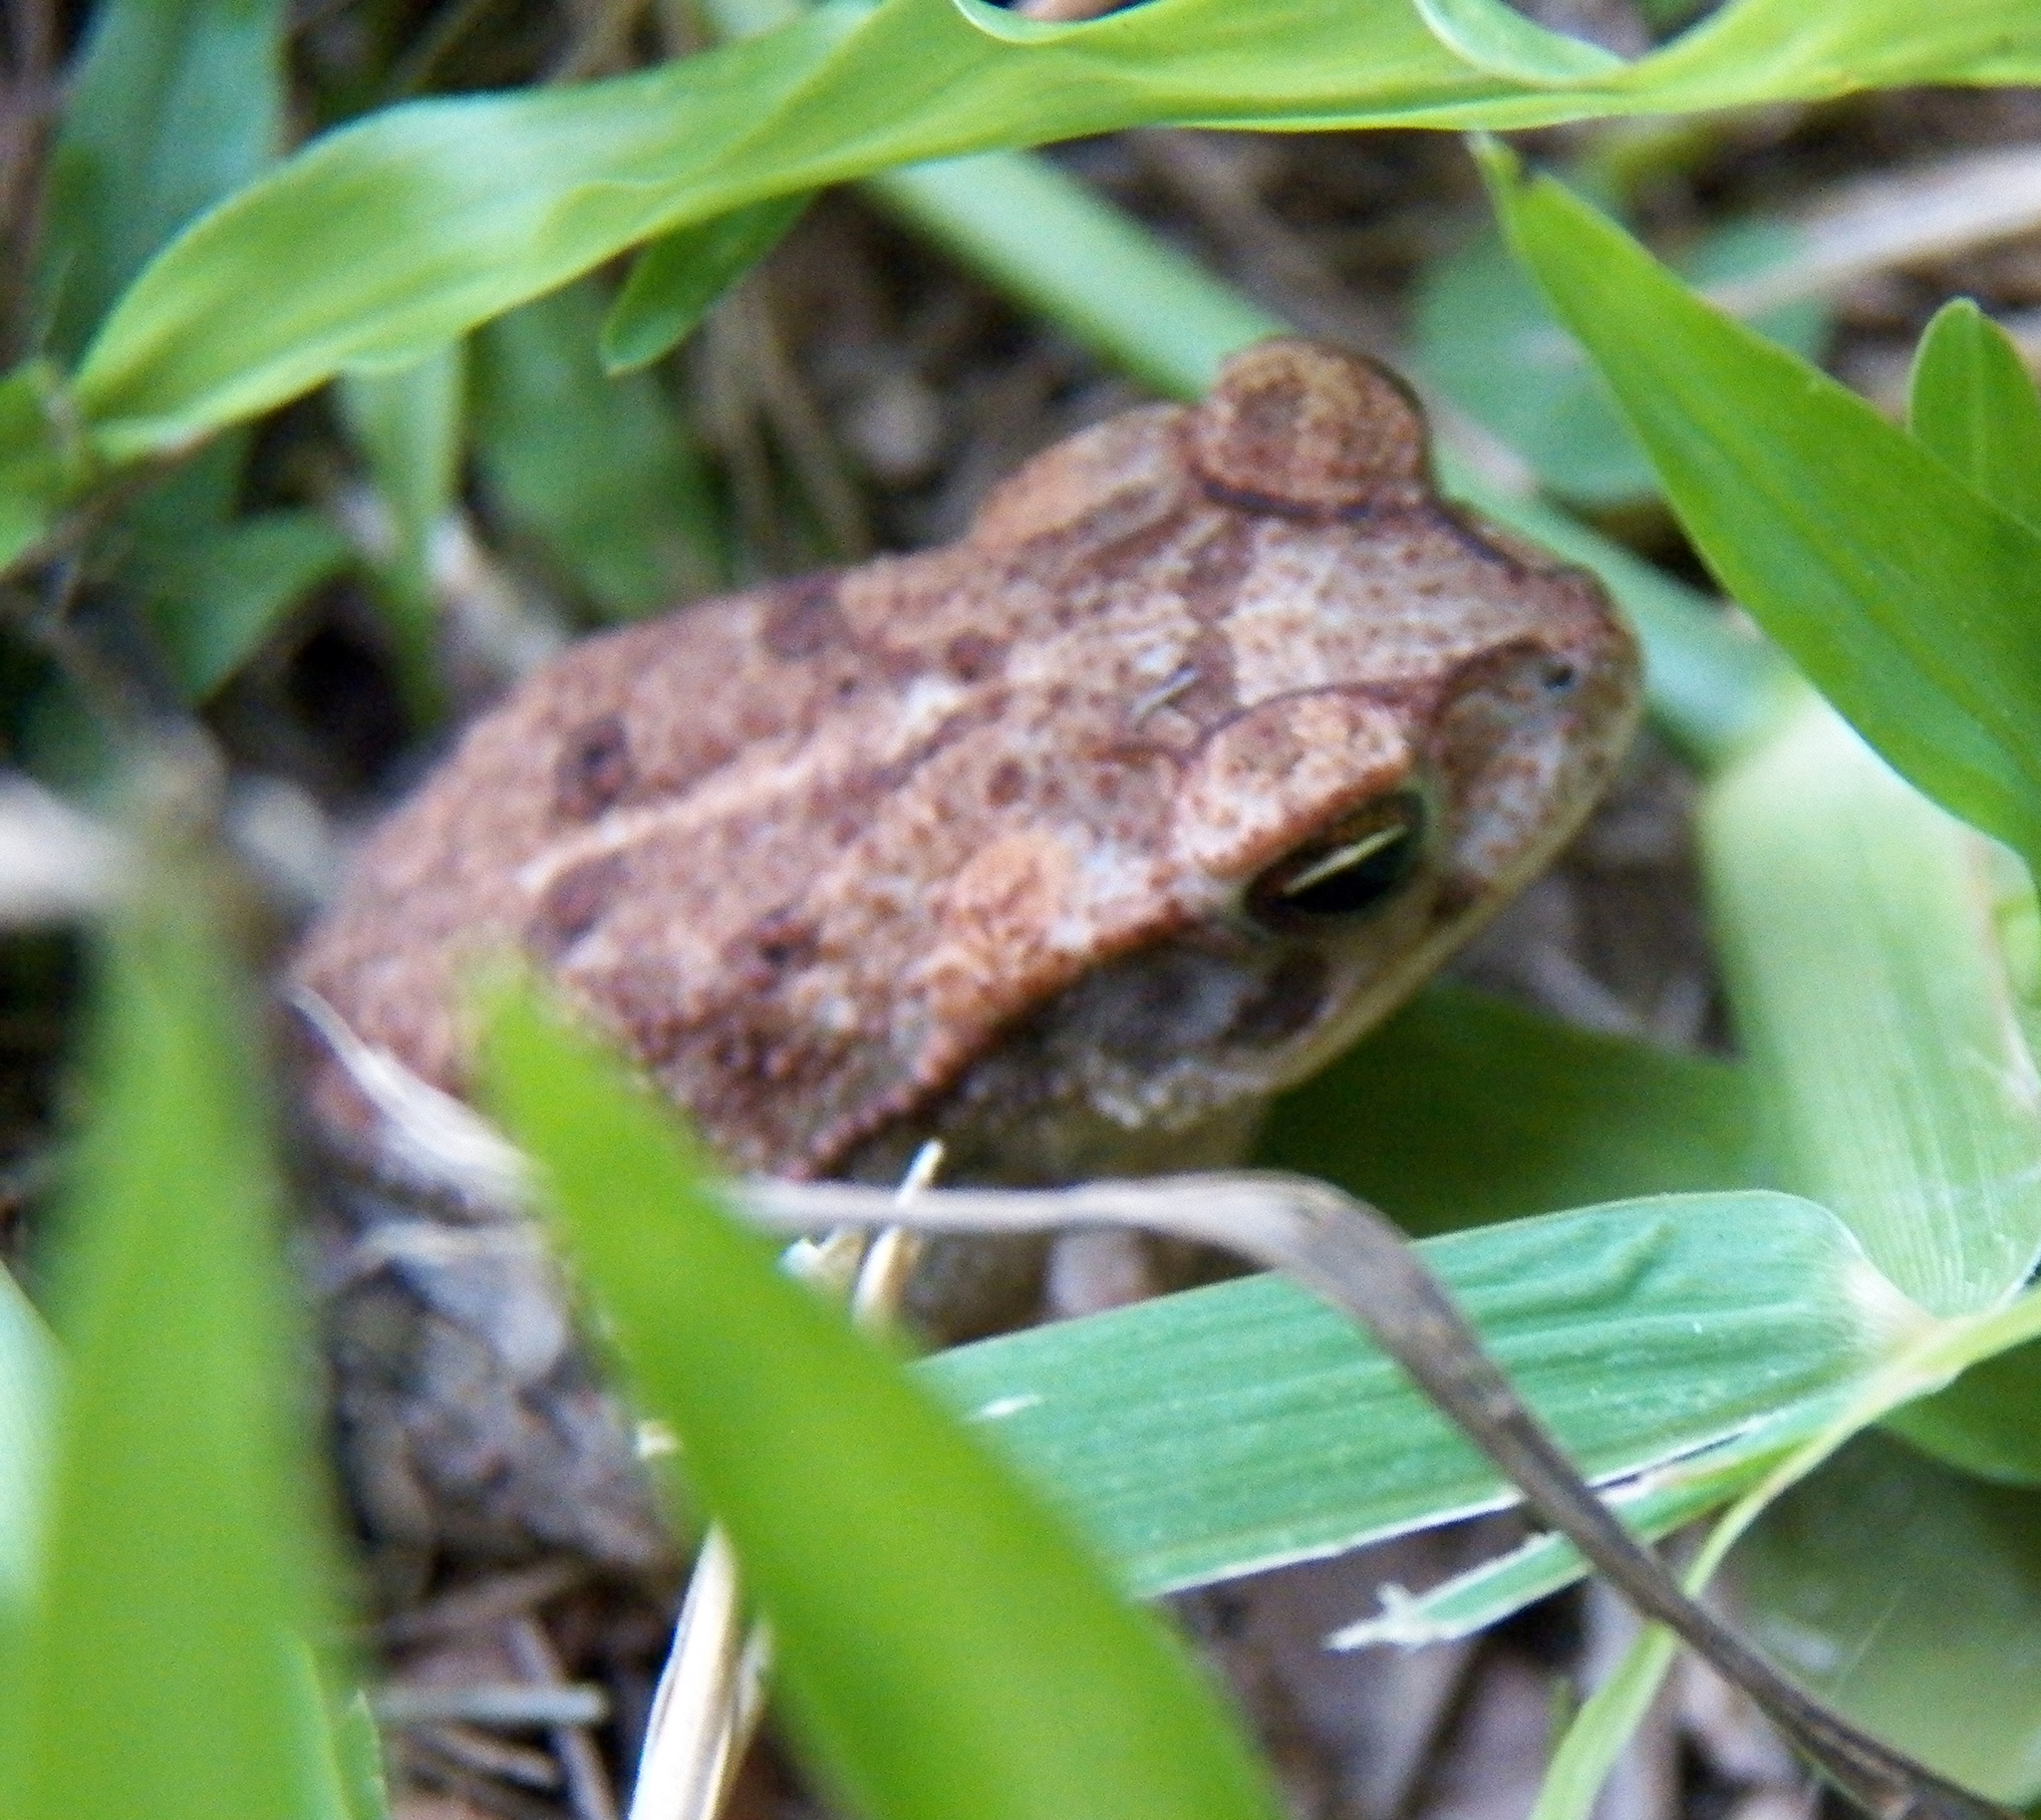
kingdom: Animalia
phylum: Chordata
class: Amphibia
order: Anura
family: Bufonidae
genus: Incilius
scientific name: Incilius nebulifer
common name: Gulf coast toad
